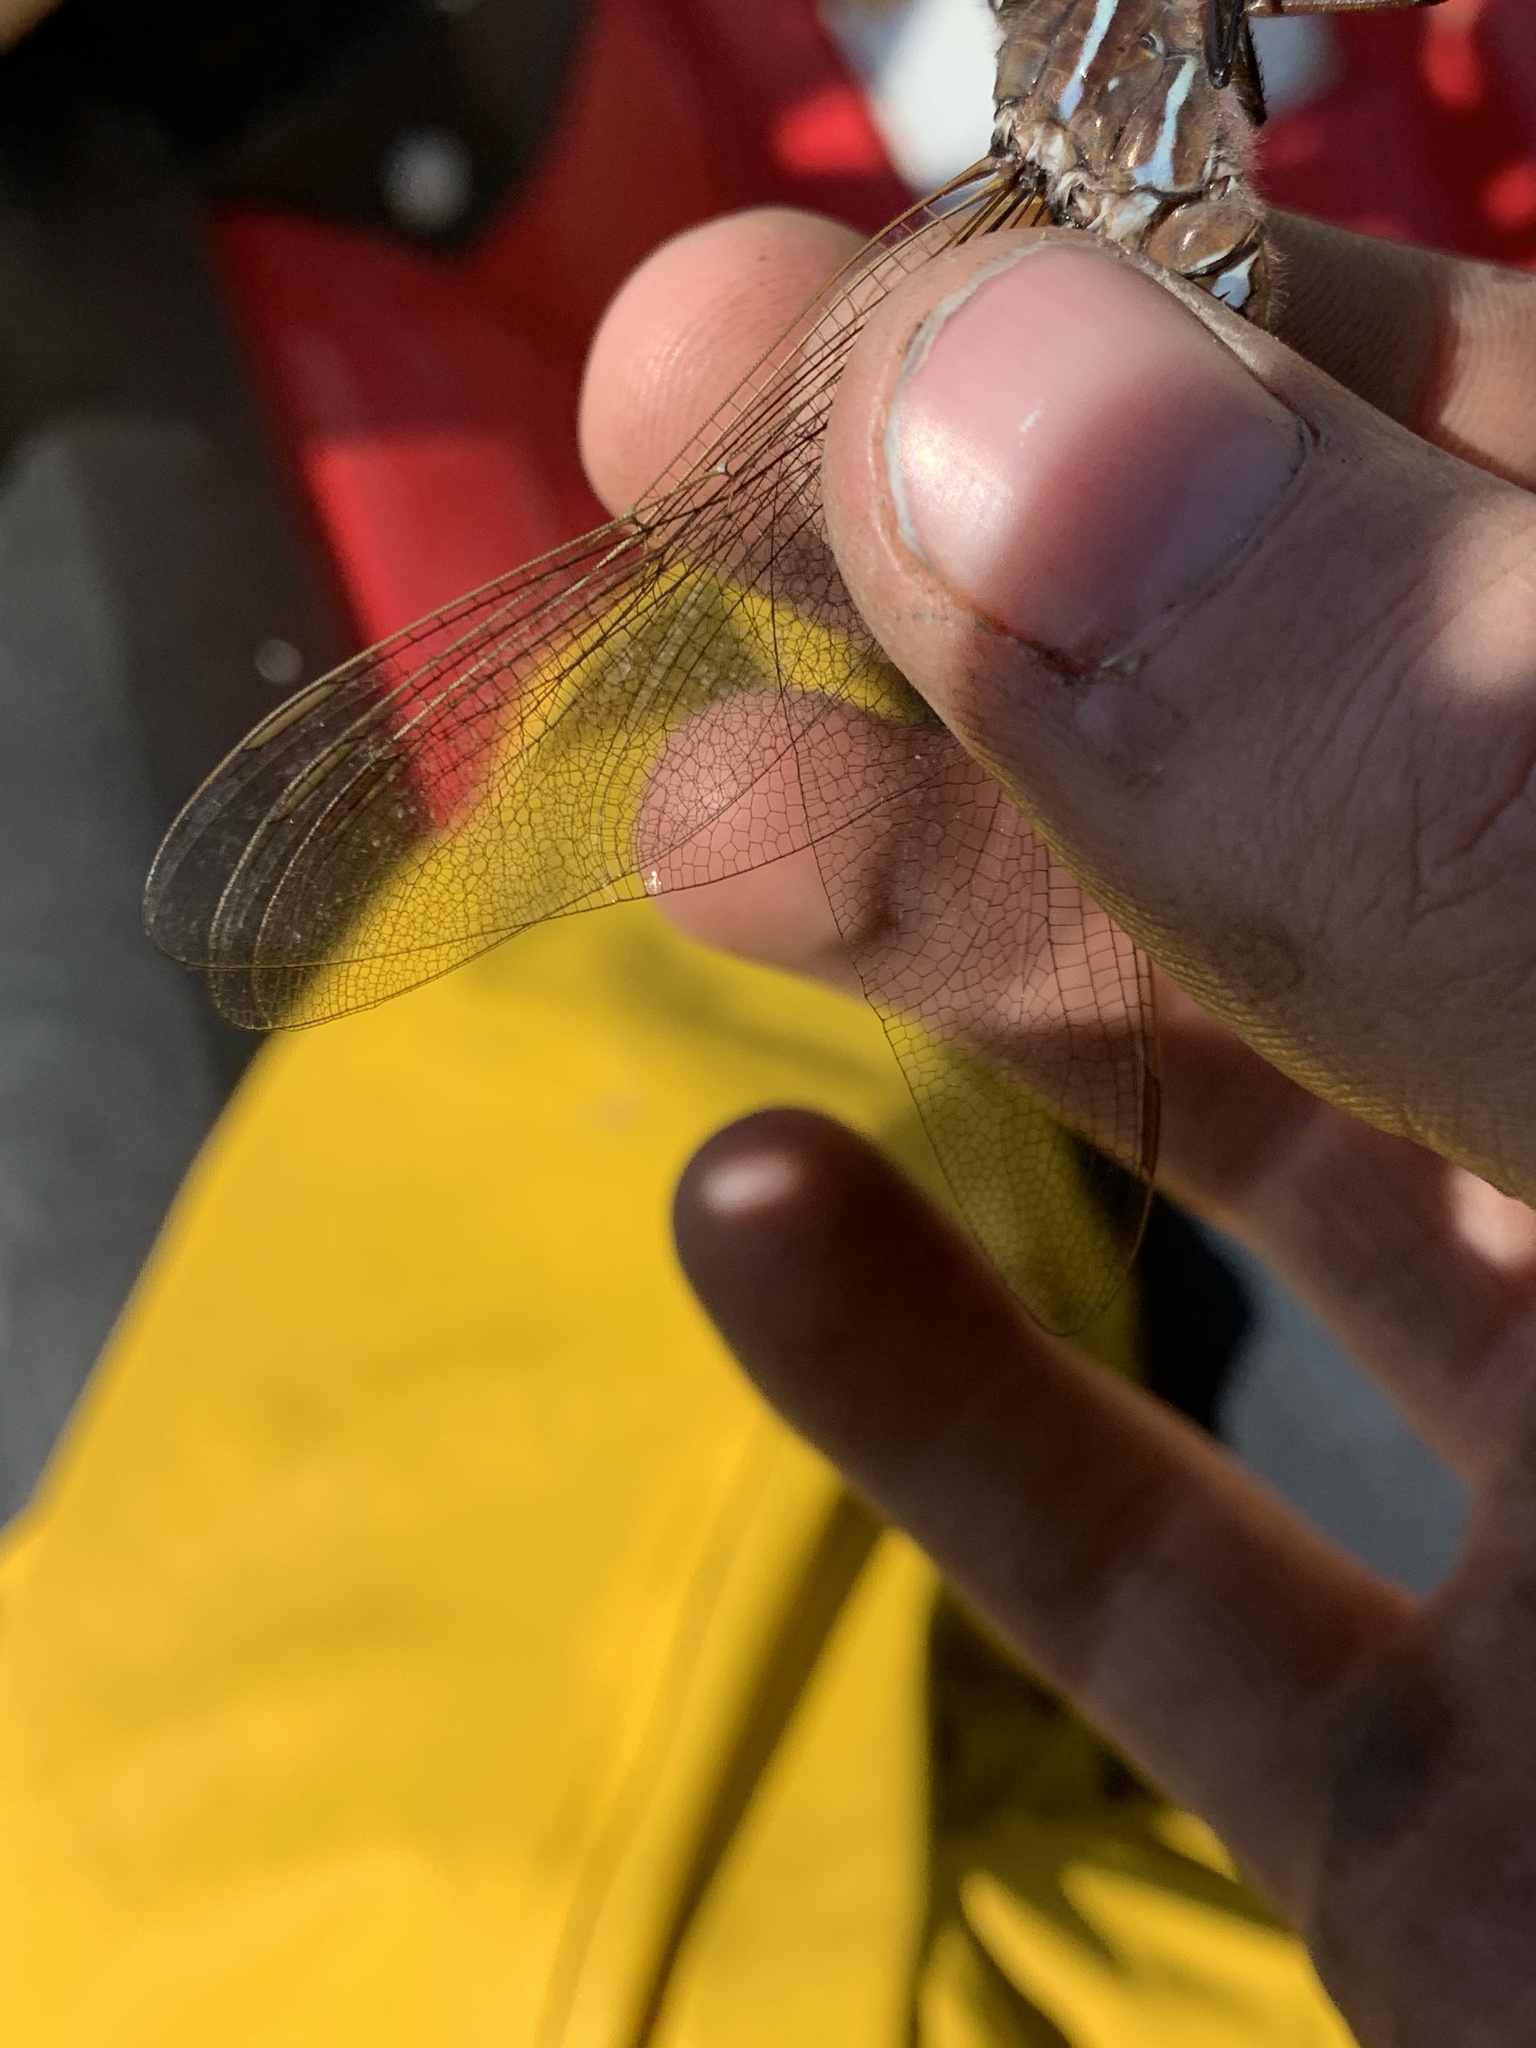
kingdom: Animalia
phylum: Arthropoda
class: Insecta
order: Odonata
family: Aeshnidae
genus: Aeshna
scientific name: Aeshna interrupta
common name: Variable darner
